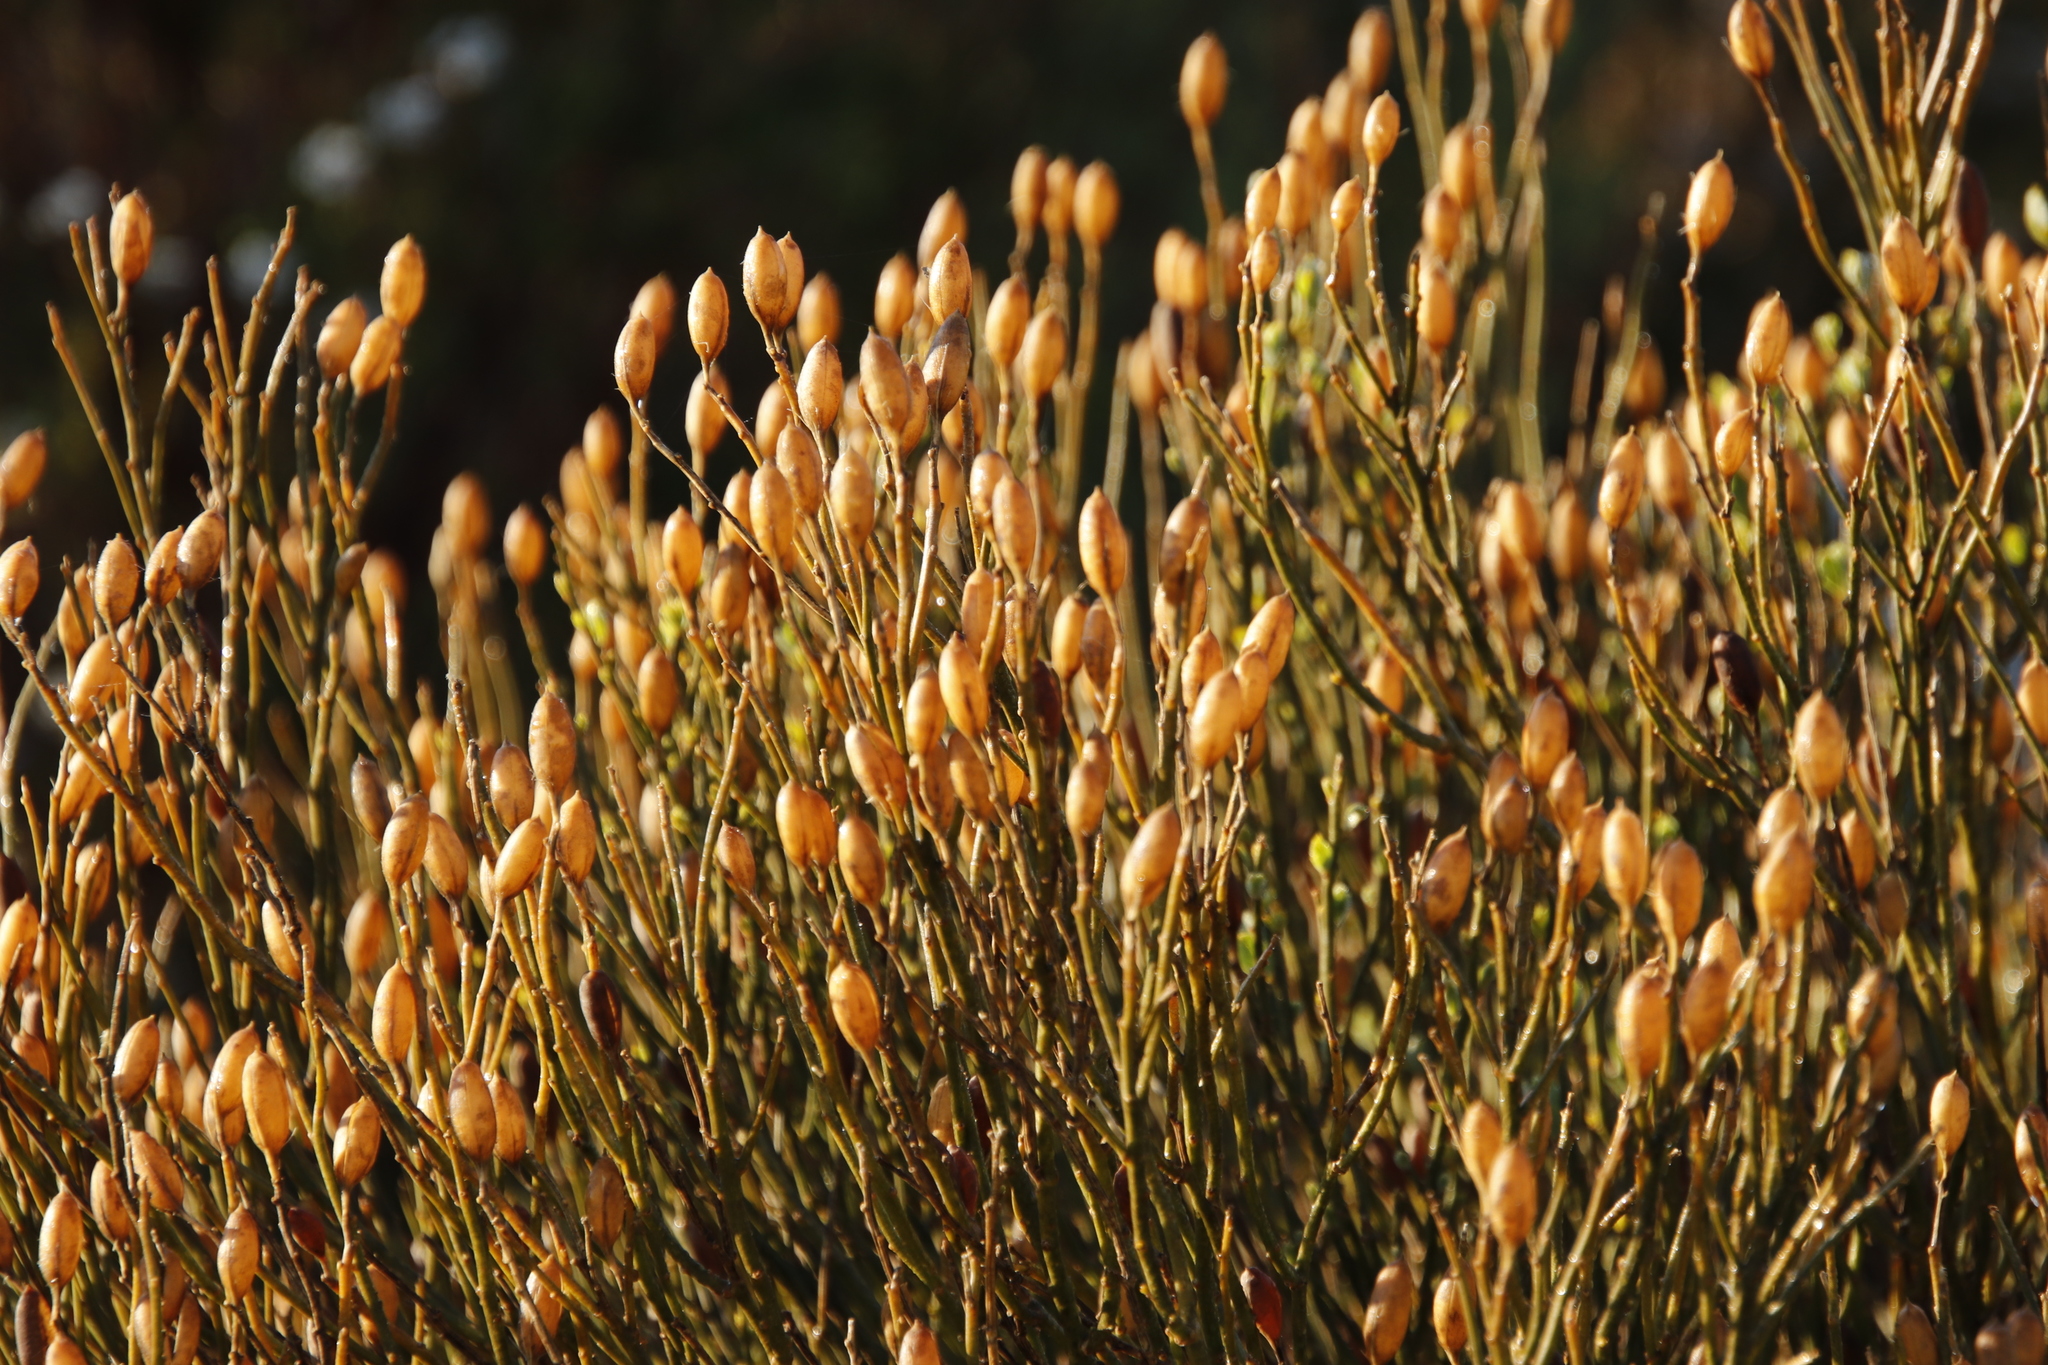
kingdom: Plantae
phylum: Tracheophyta
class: Magnoliopsida
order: Solanales
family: Montiniaceae
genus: Montinia
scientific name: Montinia caryophyllacea
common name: Wild clove-bush
